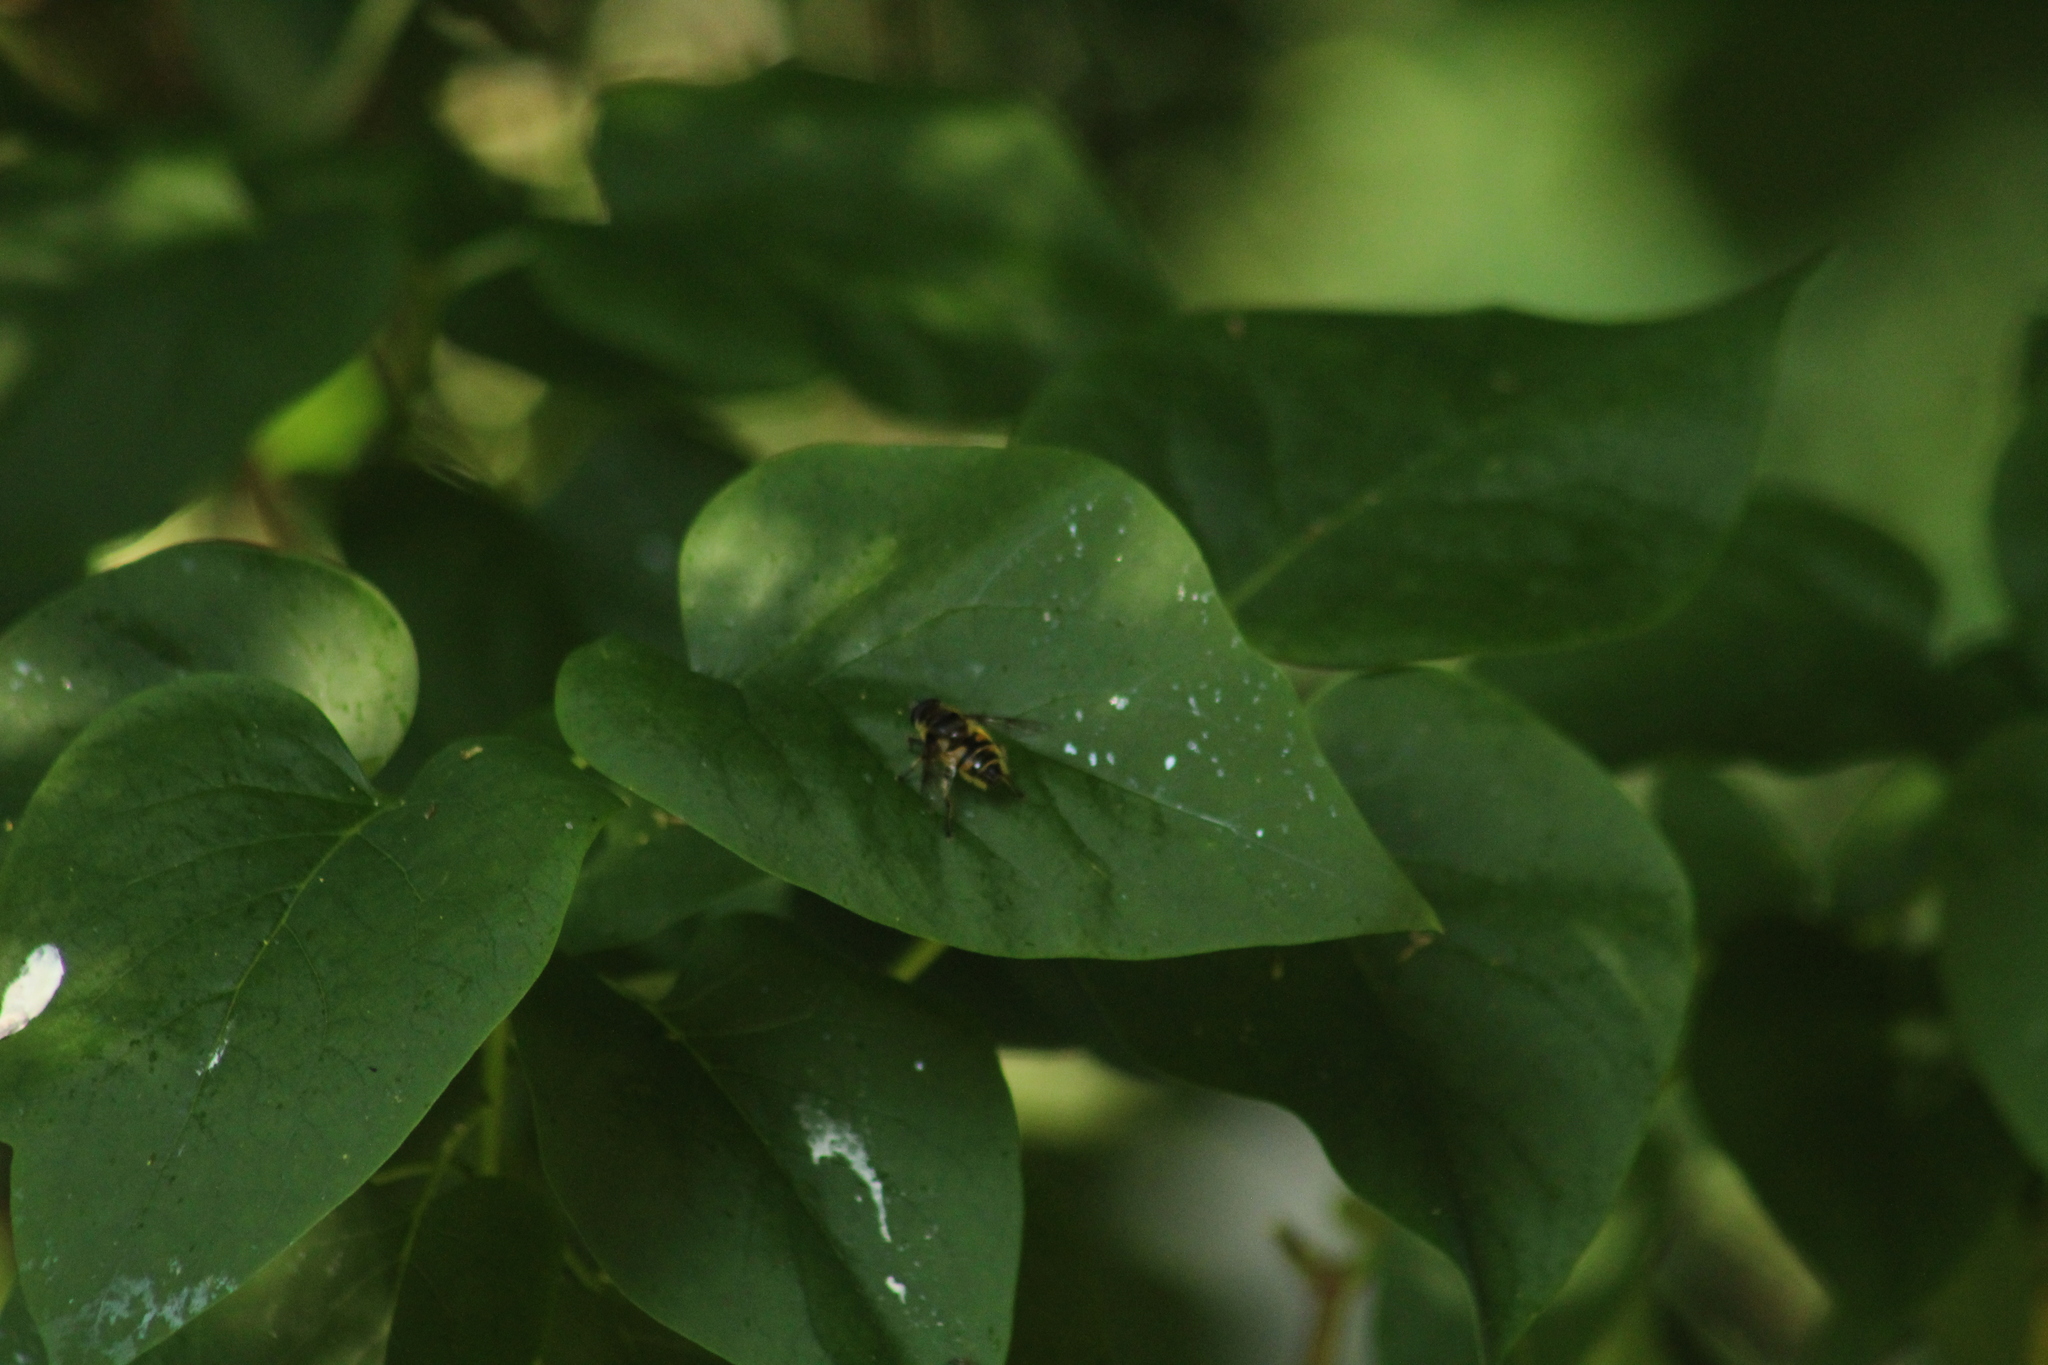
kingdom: Animalia
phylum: Arthropoda
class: Insecta
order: Diptera
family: Syrphidae
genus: Myathropa
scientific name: Myathropa florea
